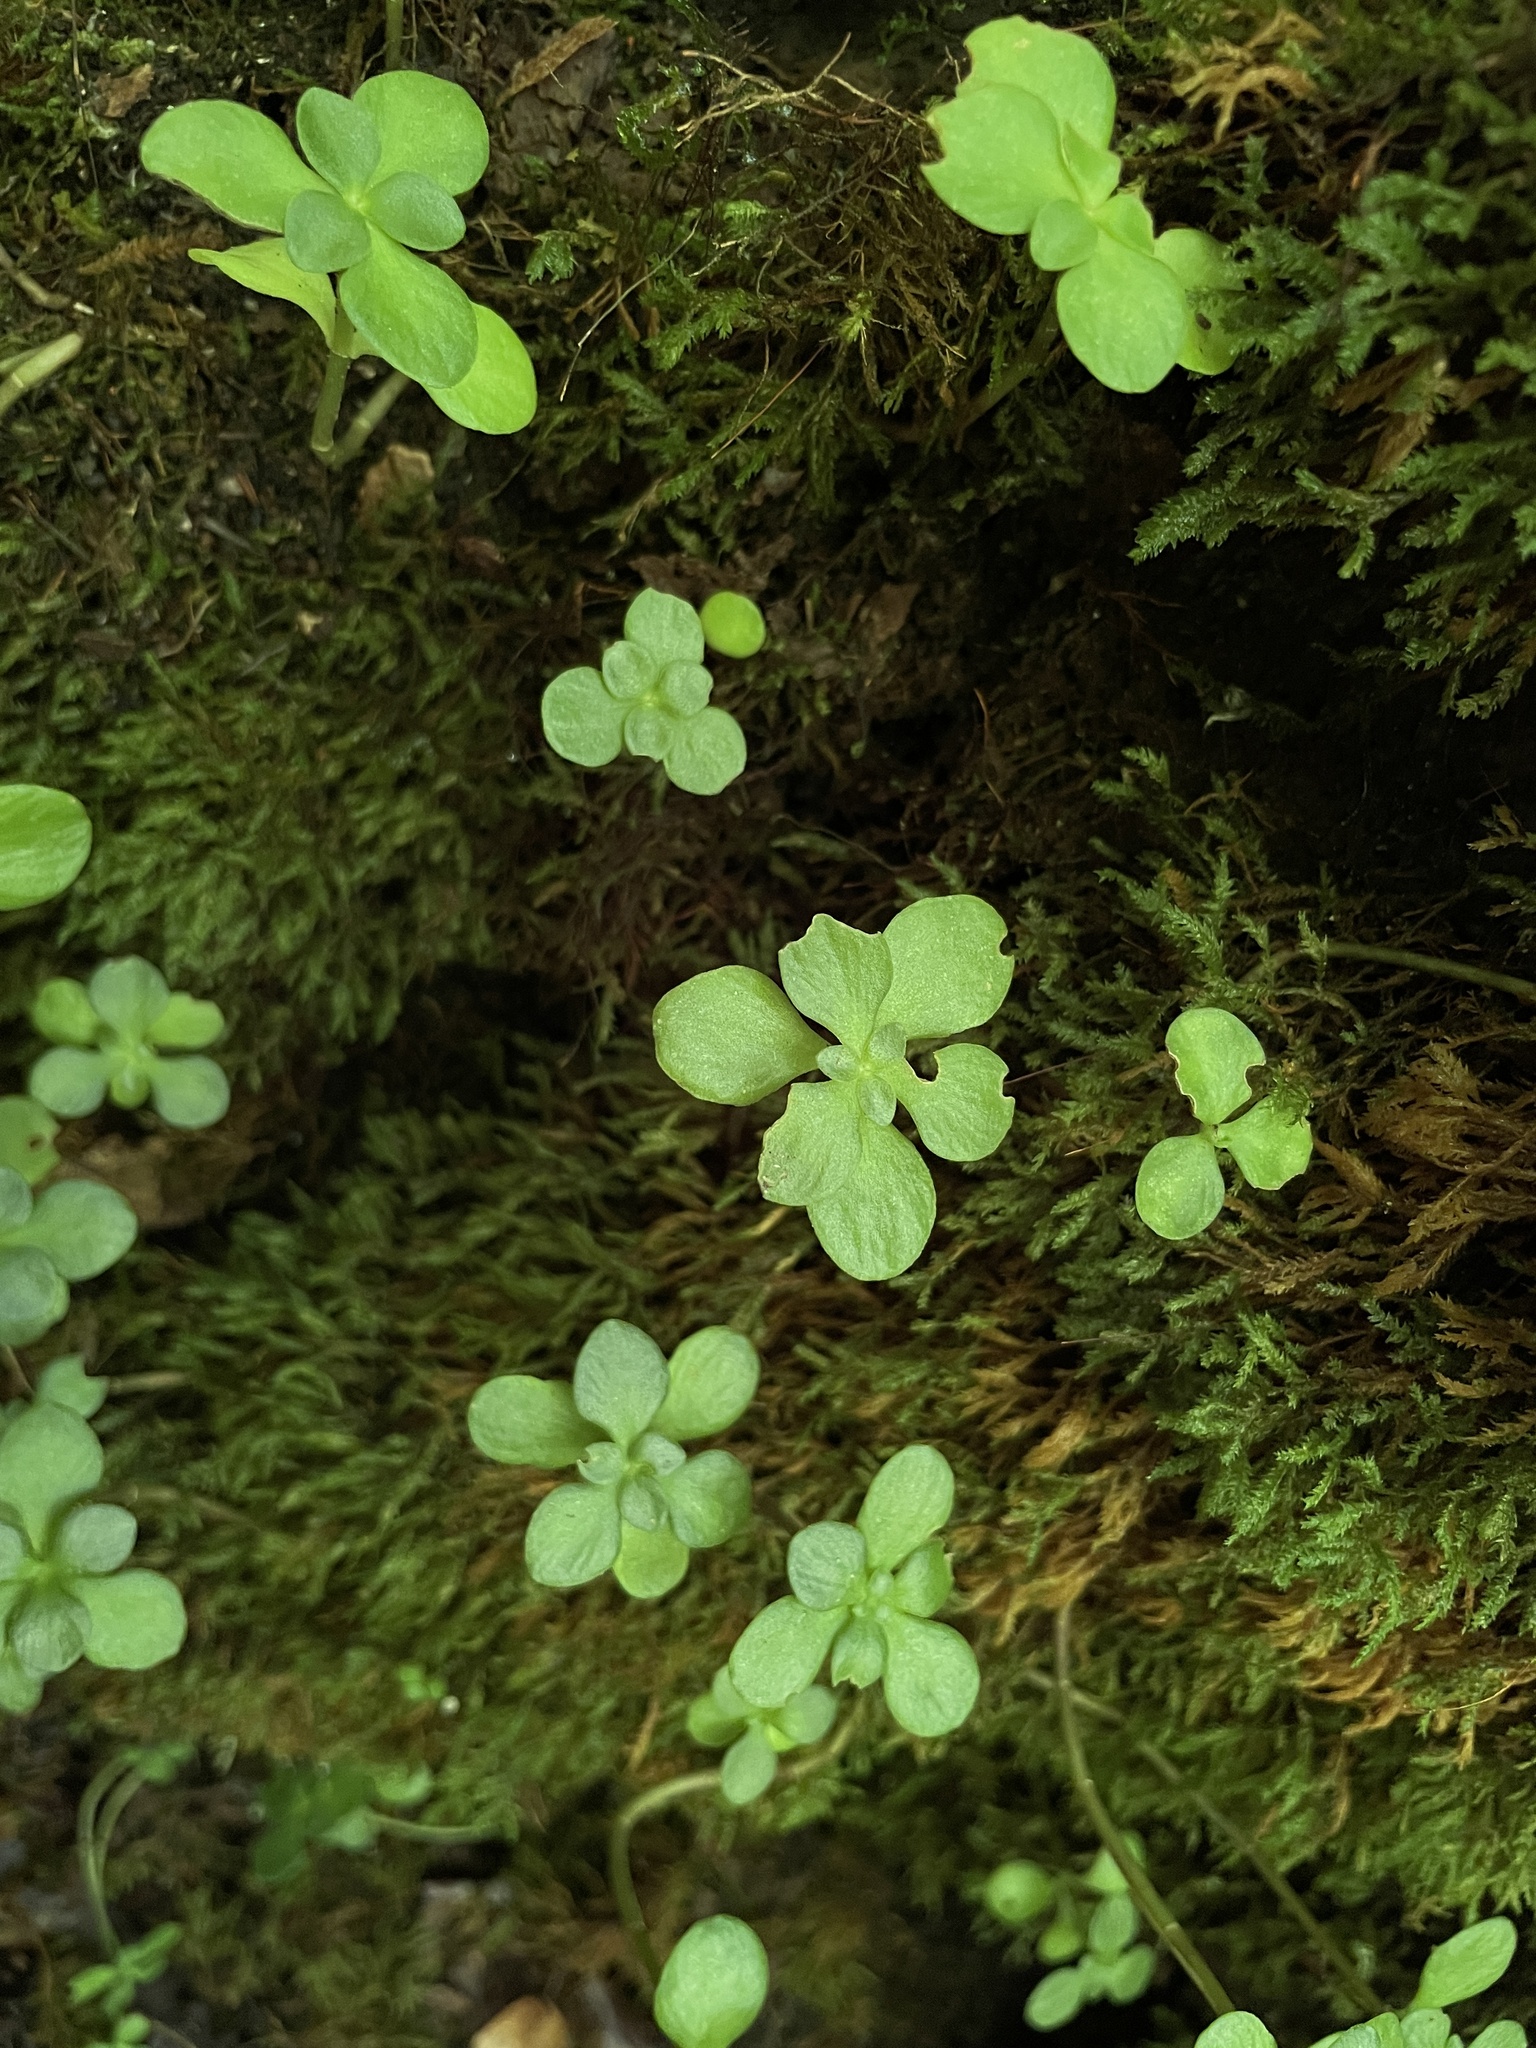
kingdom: Plantae
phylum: Tracheophyta
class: Magnoliopsida
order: Saxifragales
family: Crassulaceae
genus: Sedum
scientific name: Sedum ternatum
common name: Wild stonecrop
